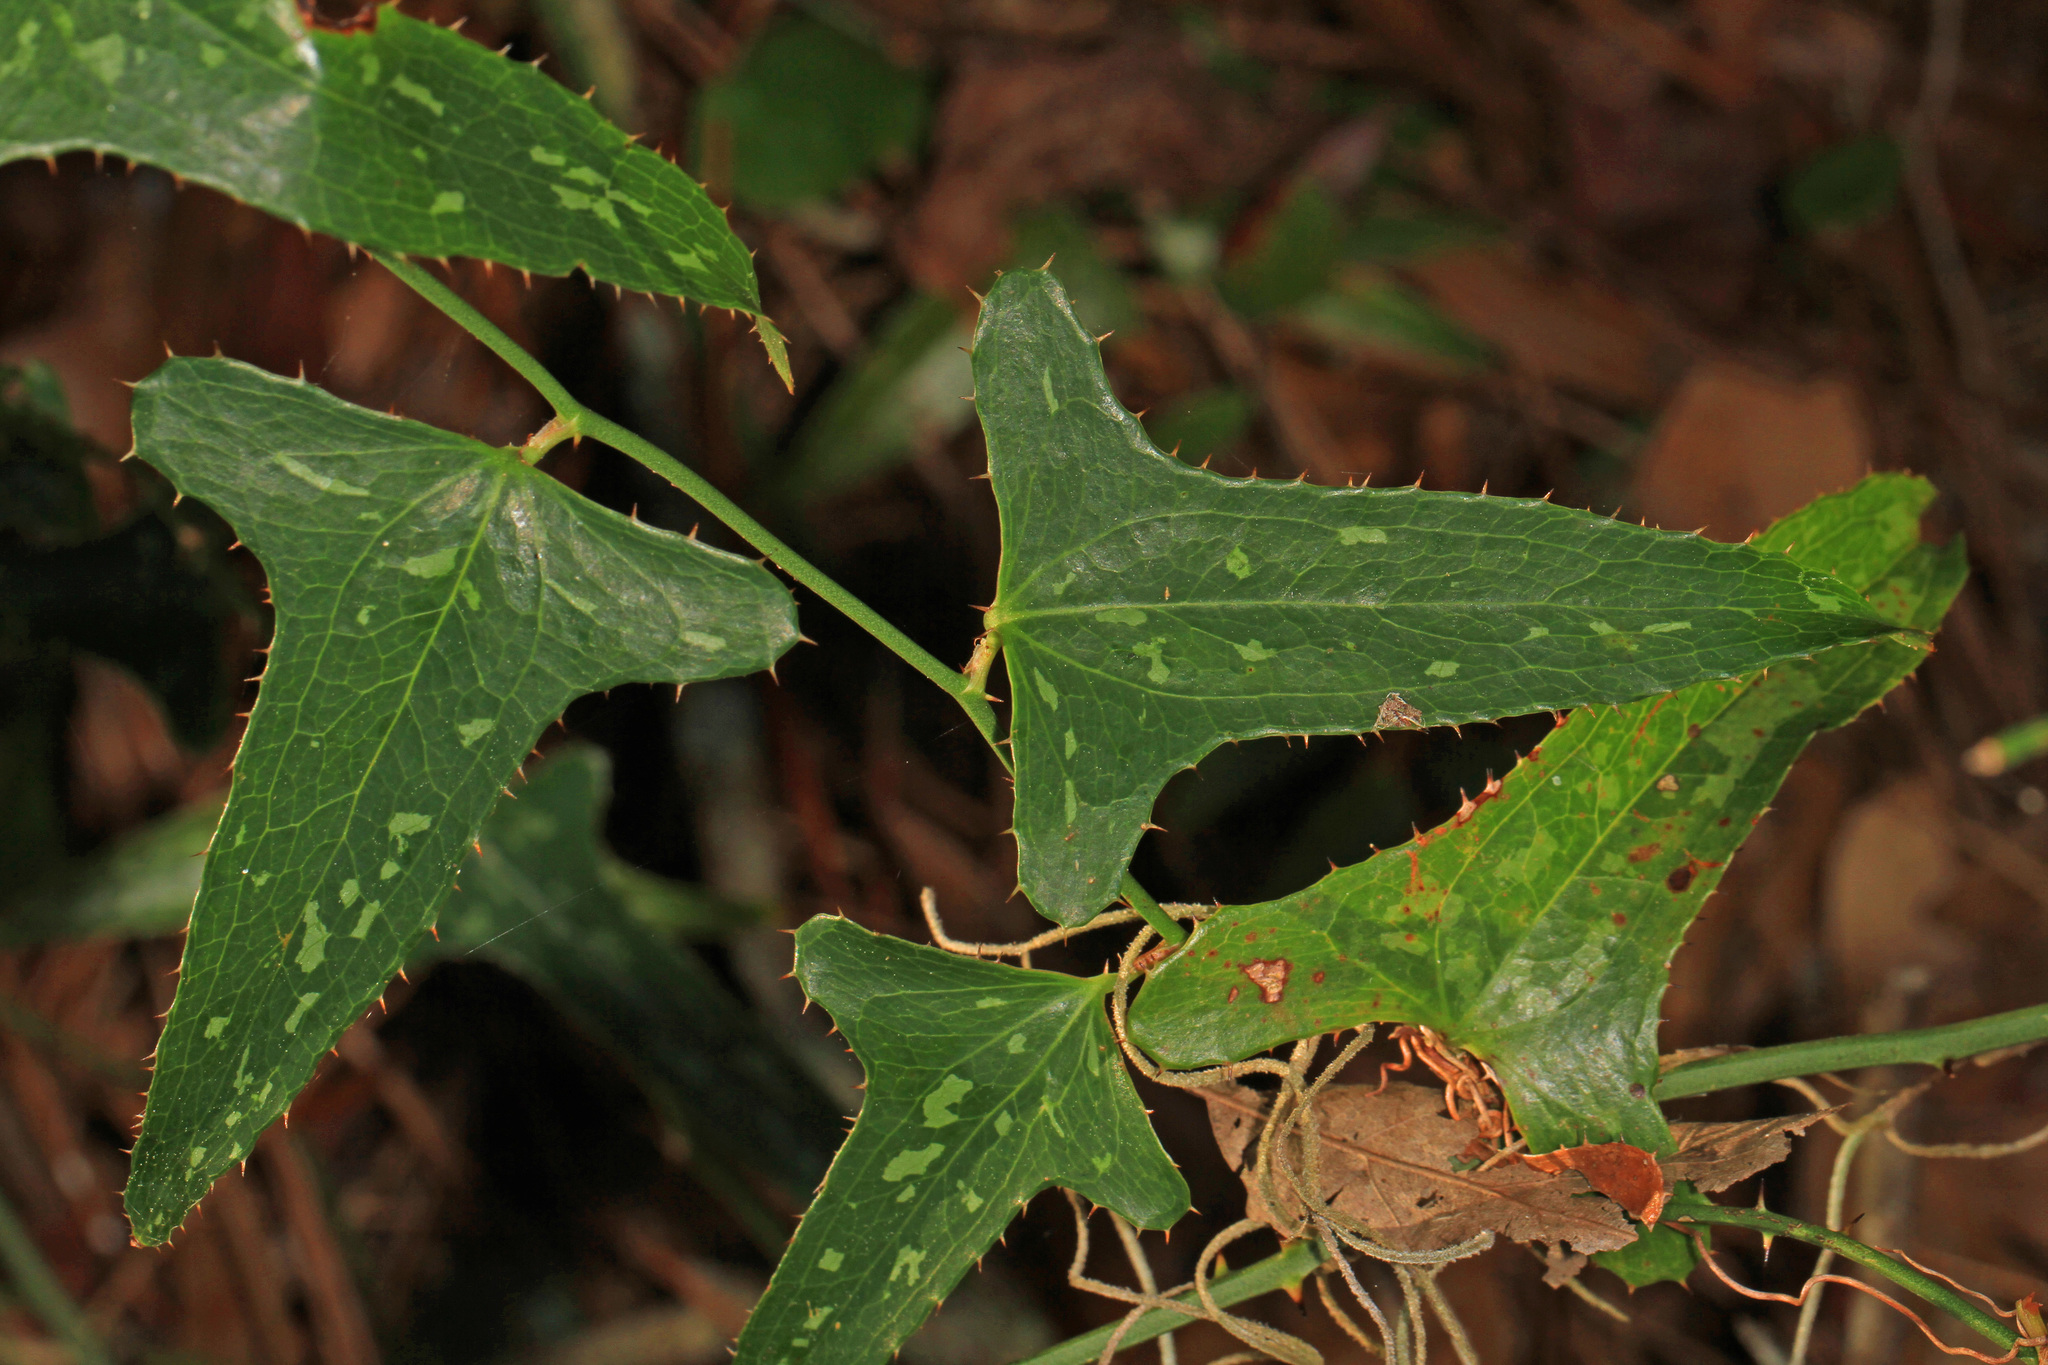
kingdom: Plantae
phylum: Tracheophyta
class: Liliopsida
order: Liliales
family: Smilacaceae
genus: Smilax
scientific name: Smilax bona-nox
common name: Catbrier
